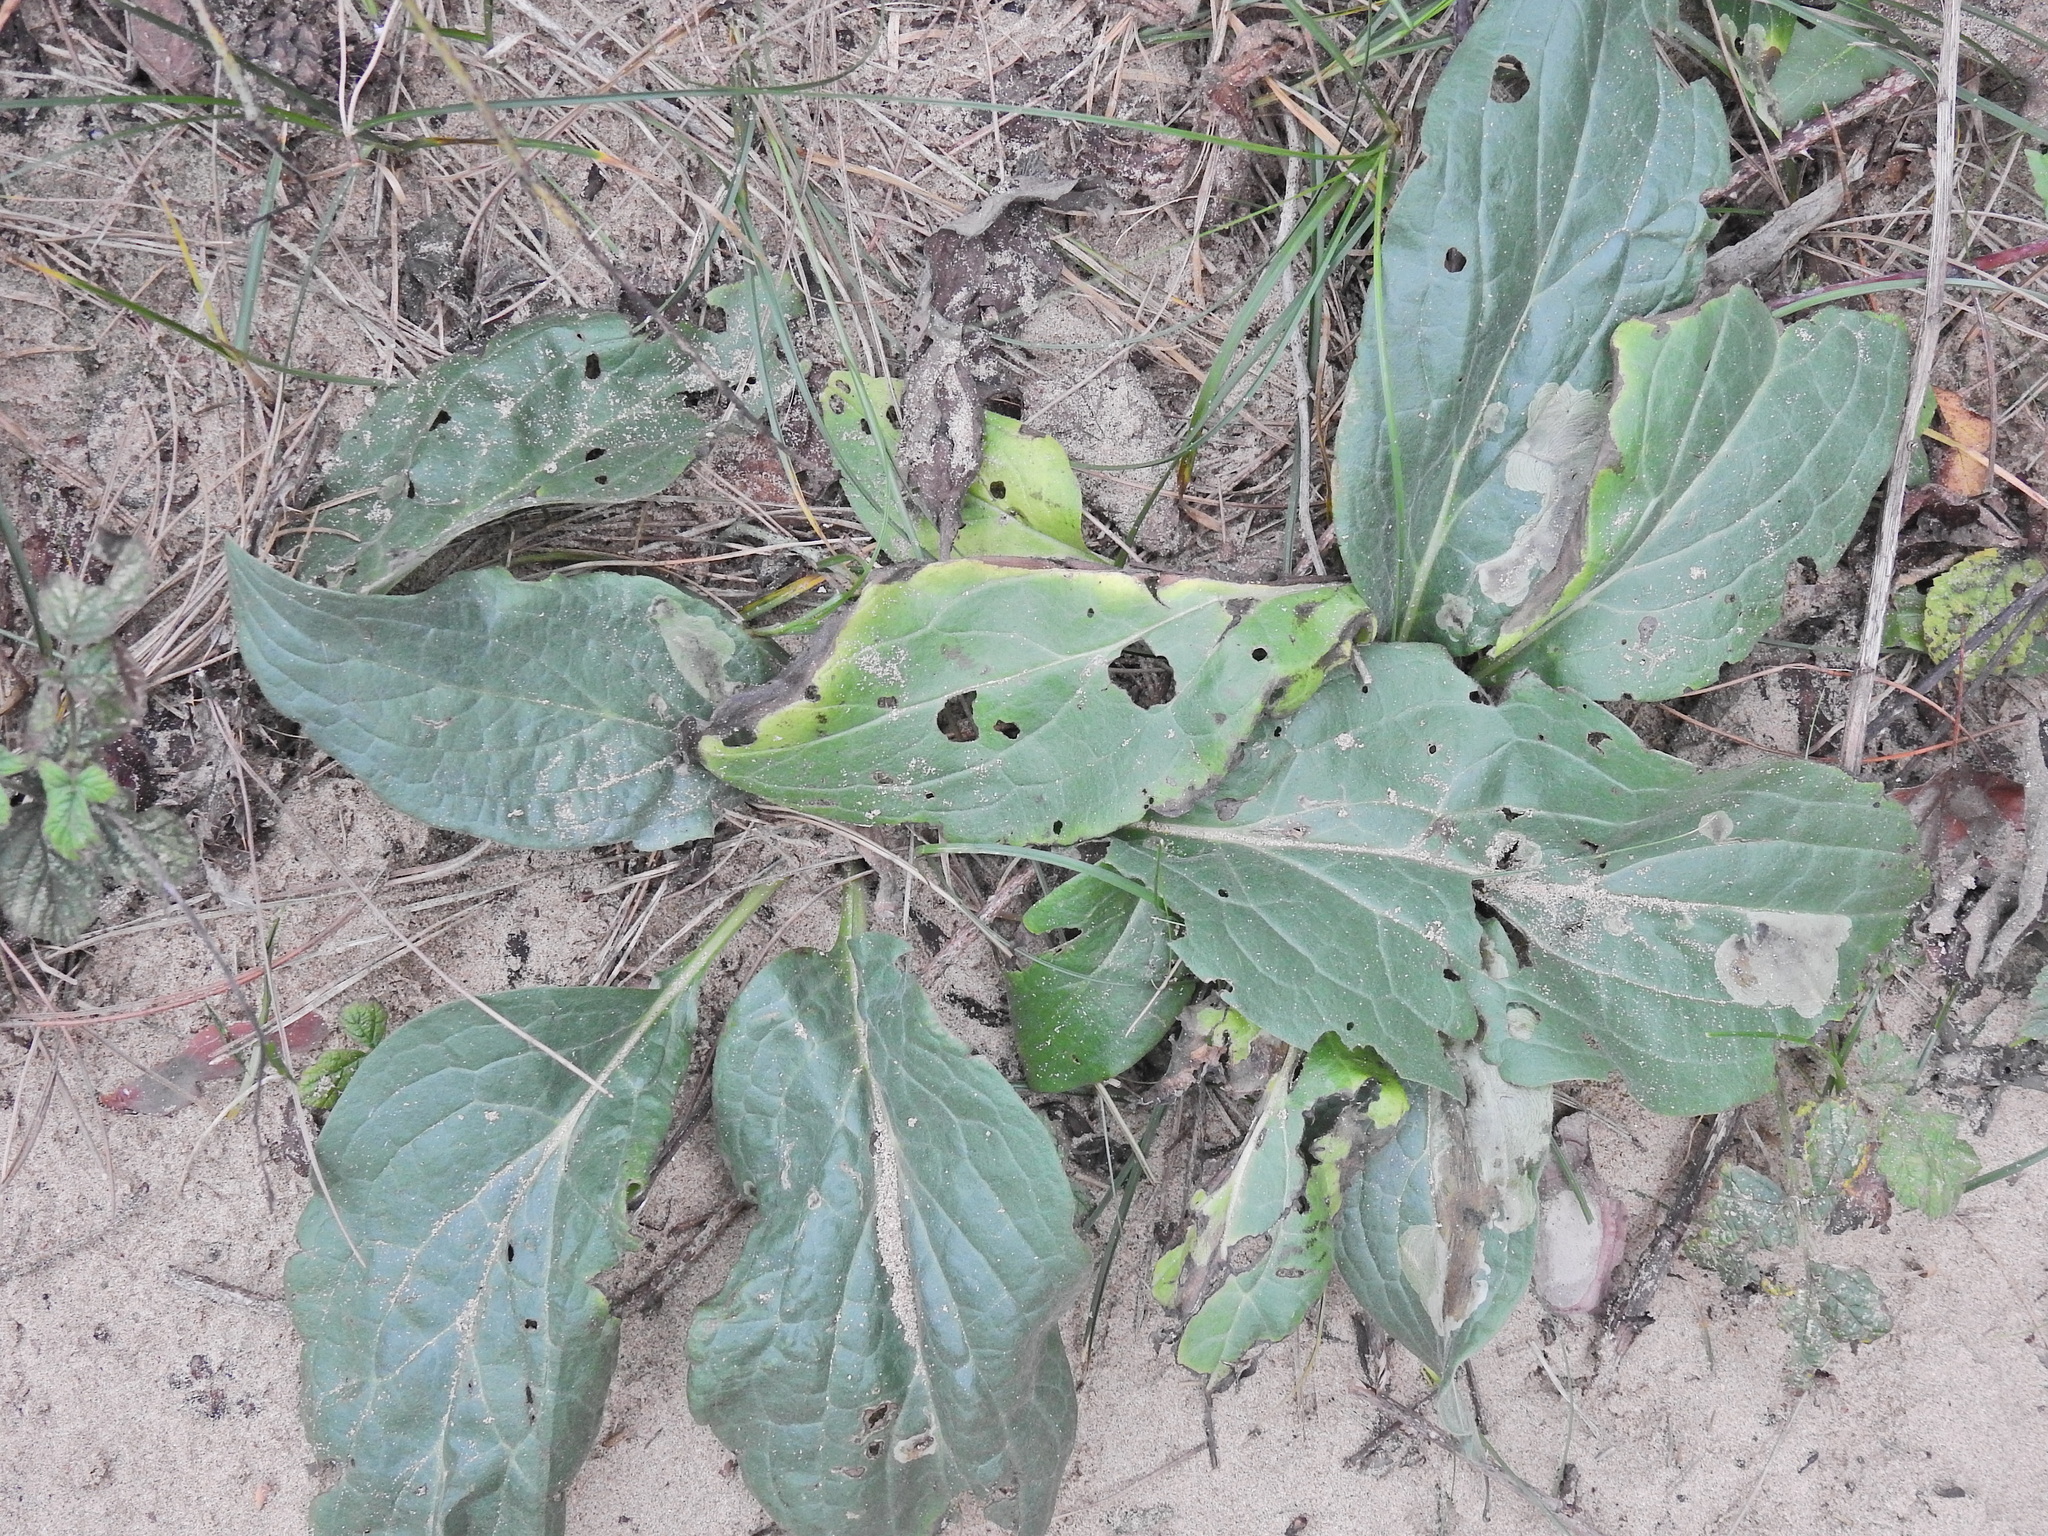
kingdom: Plantae
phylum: Tracheophyta
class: Magnoliopsida
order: Boraginales
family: Boraginaceae
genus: Cynoglossum
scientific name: Cynoglossum officinale
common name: Hound's-tongue
